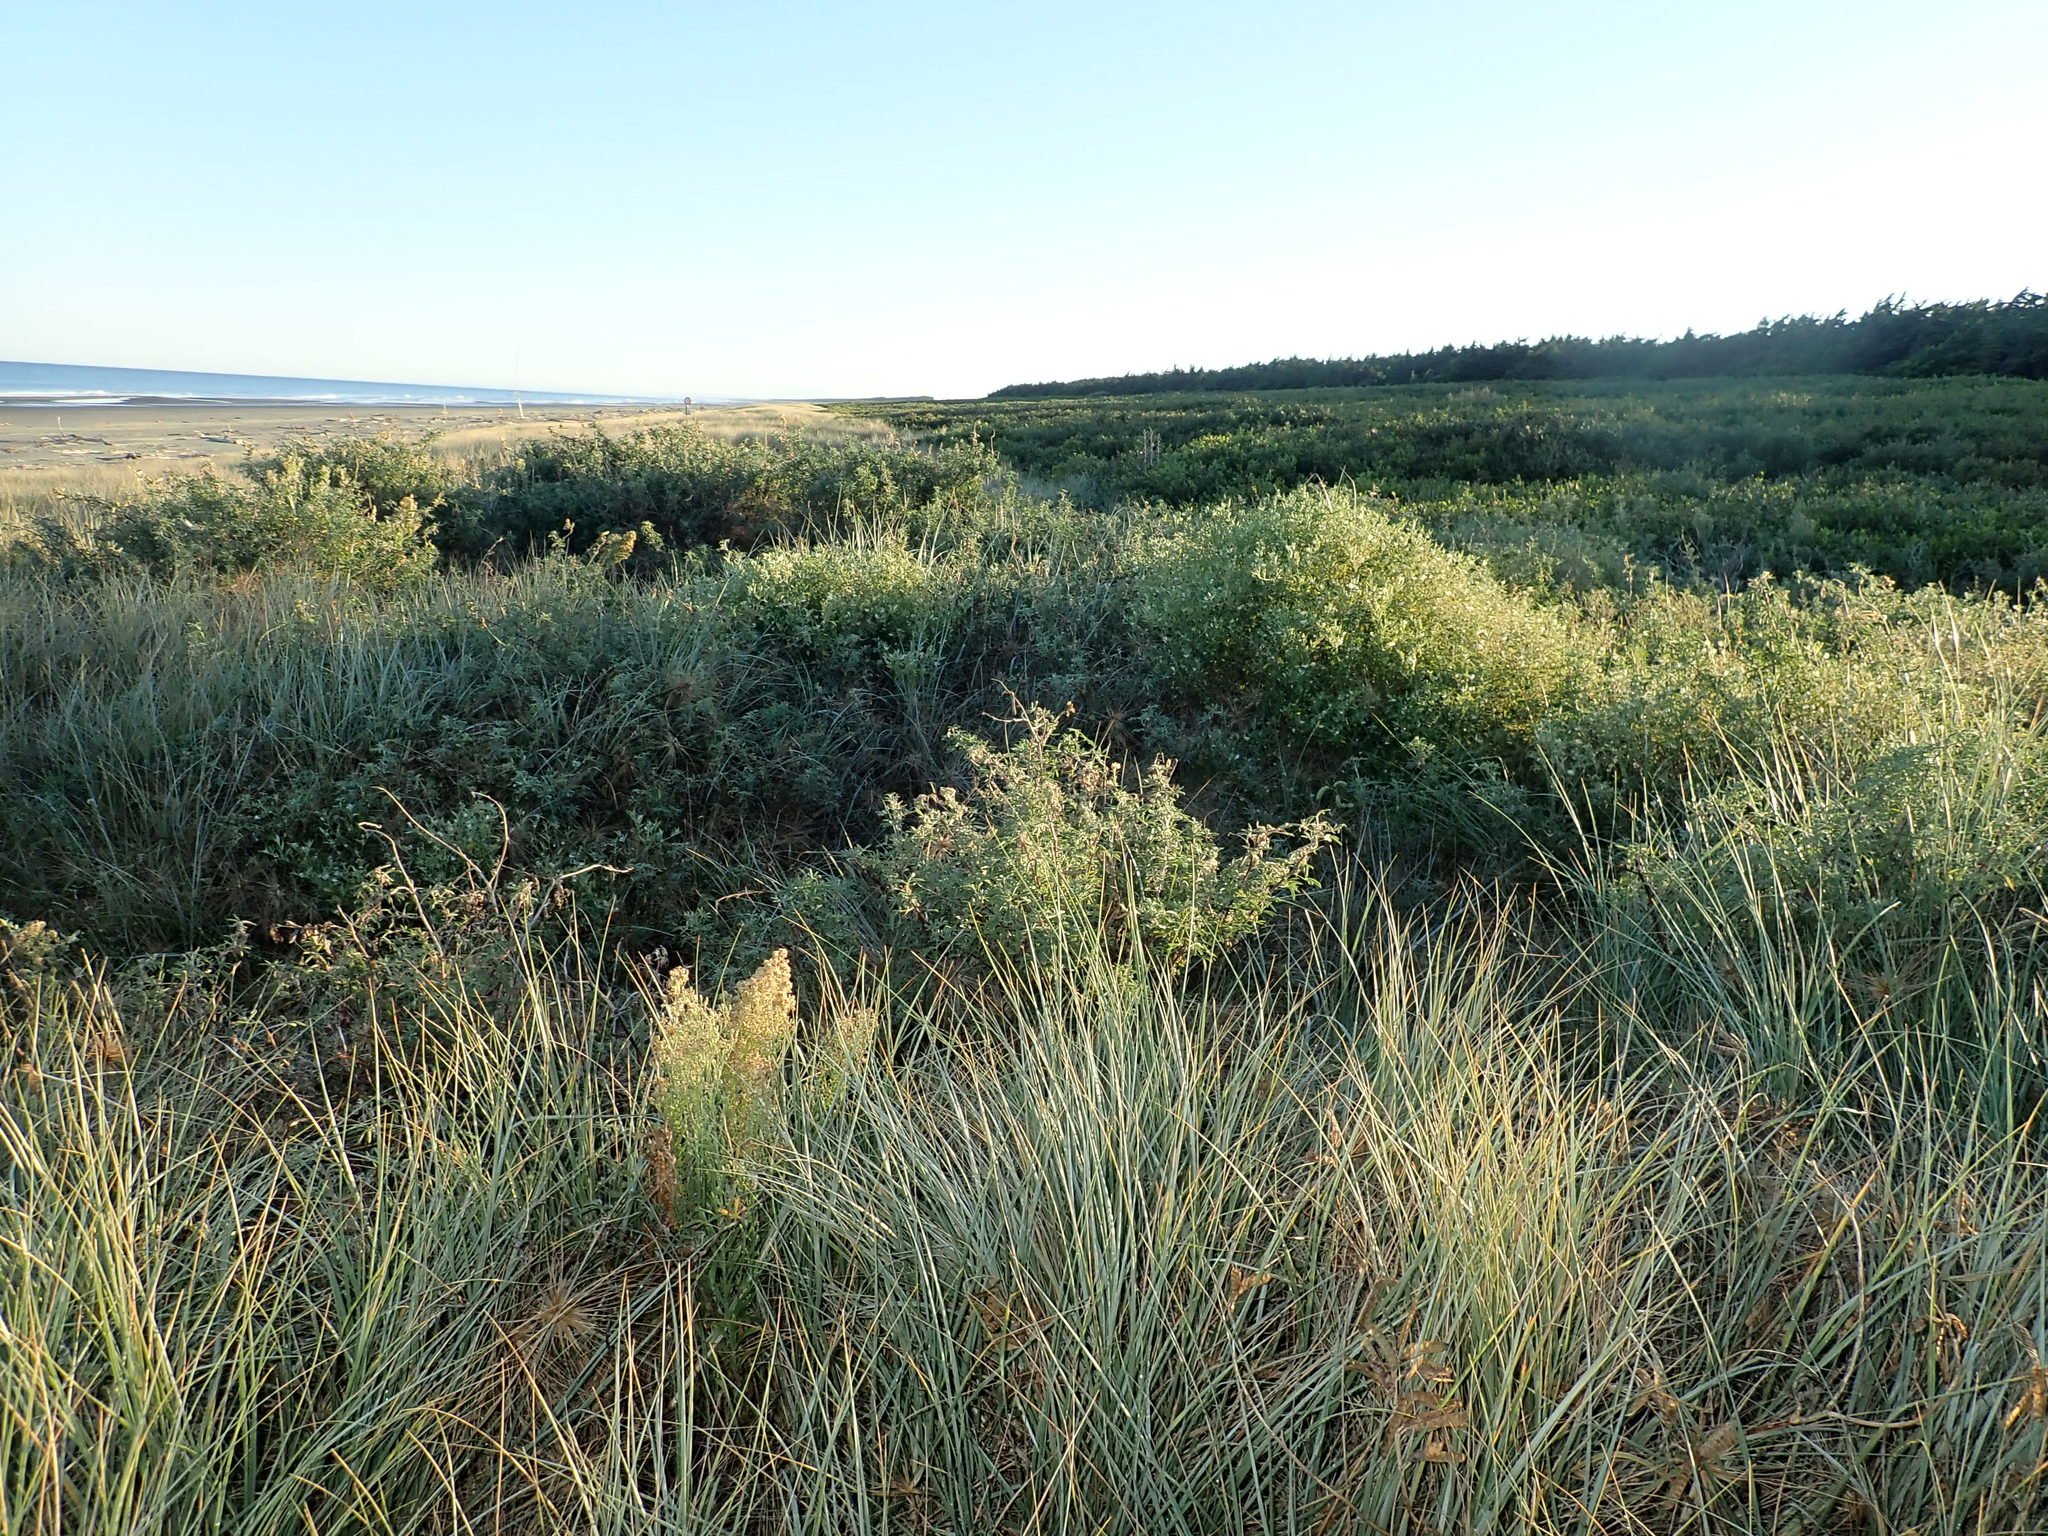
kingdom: Plantae
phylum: Tracheophyta
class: Magnoliopsida
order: Solanales
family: Solanaceae
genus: Solanum
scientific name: Solanum chenopodioides
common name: Tall nightshade
